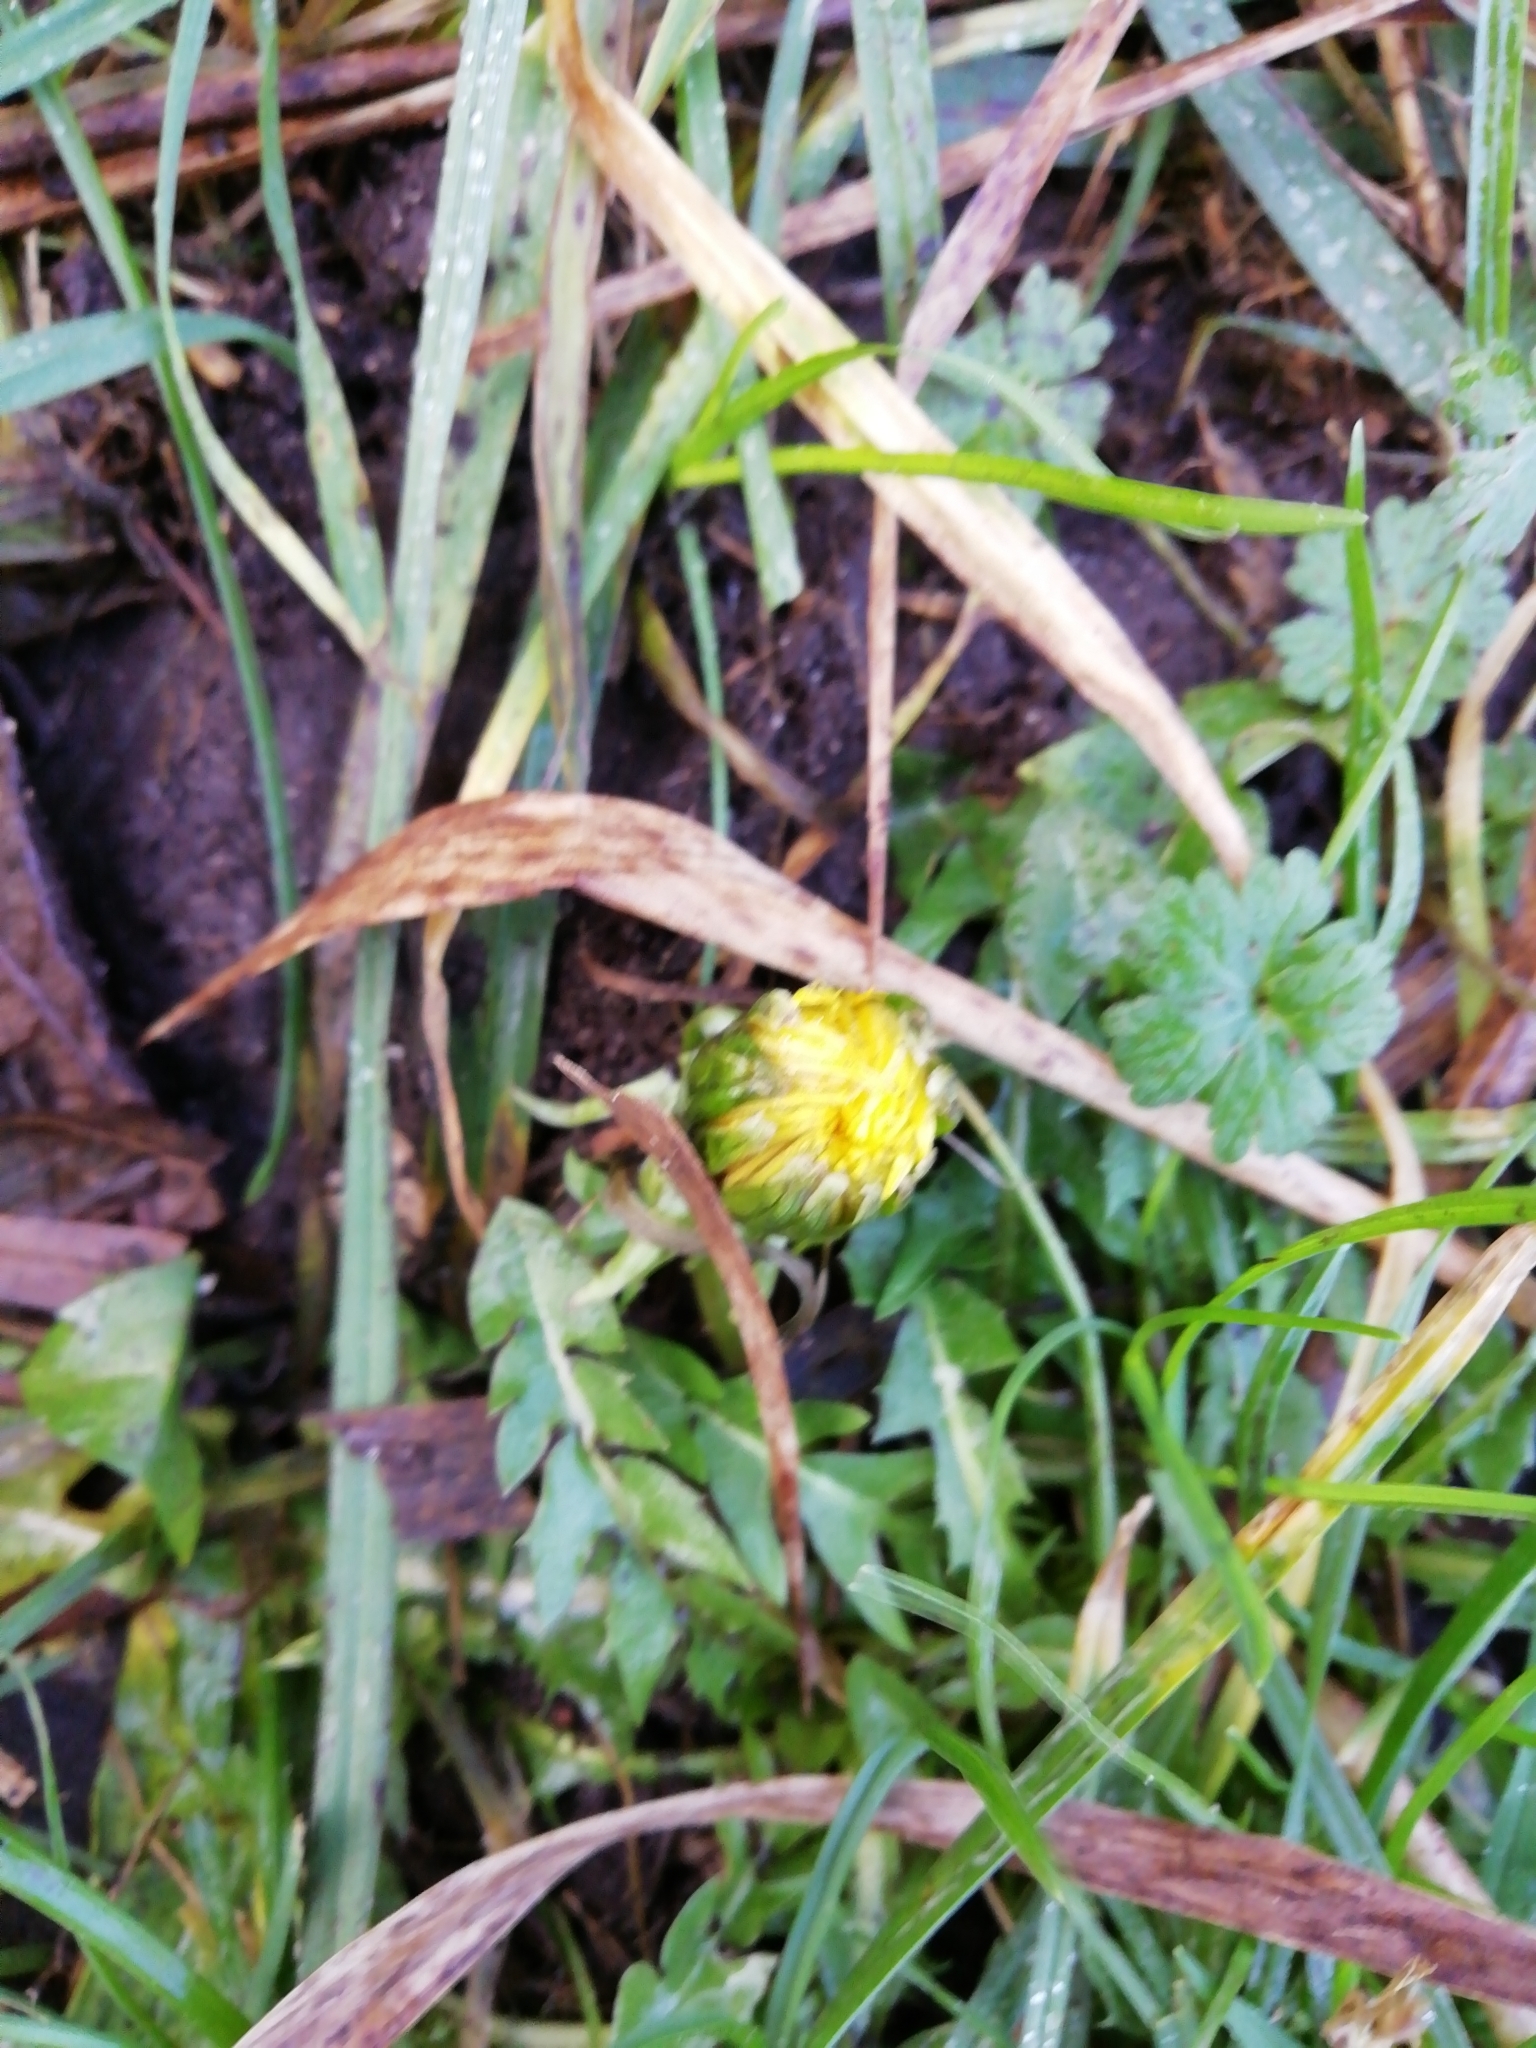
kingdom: Plantae
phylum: Tracheophyta
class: Magnoliopsida
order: Asterales
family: Asteraceae
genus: Taraxacum
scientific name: Taraxacum officinale
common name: Common dandelion
